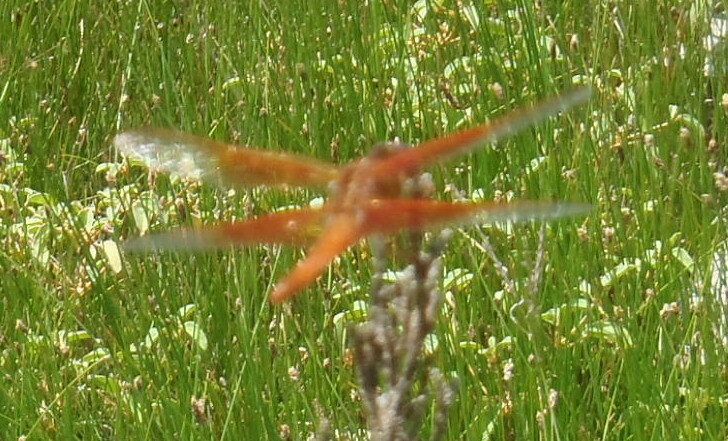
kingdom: Animalia
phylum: Arthropoda
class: Insecta
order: Odonata
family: Libellulidae
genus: Libellula
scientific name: Libellula saturata
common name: Flame skimmer
